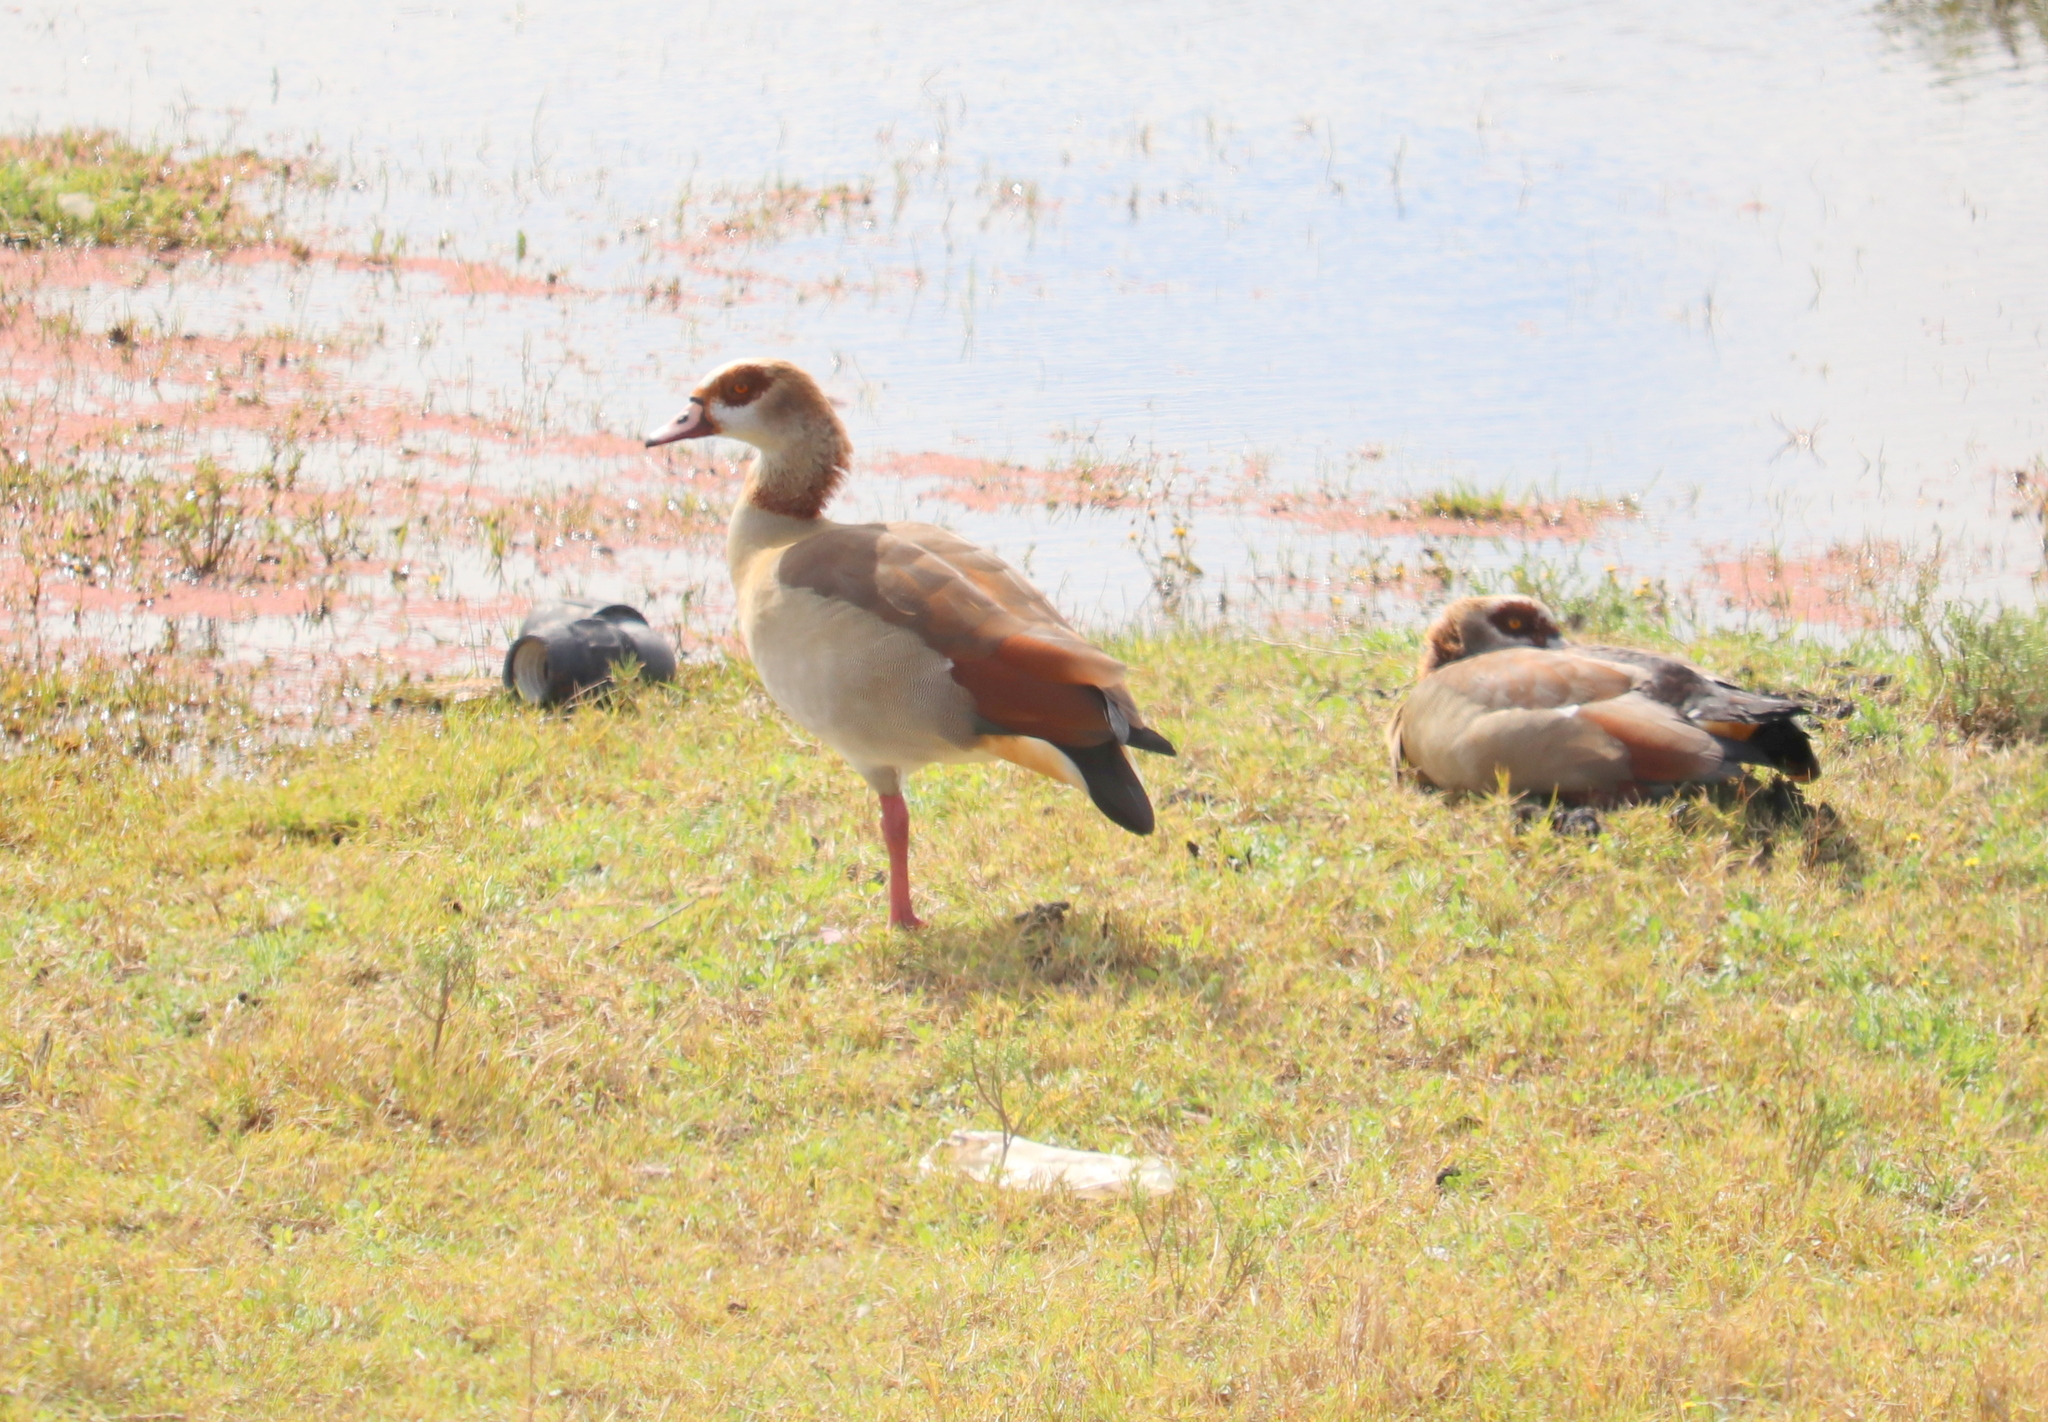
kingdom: Animalia
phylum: Chordata
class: Aves
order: Anseriformes
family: Anatidae
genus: Alopochen
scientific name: Alopochen aegyptiaca
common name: Egyptian goose
